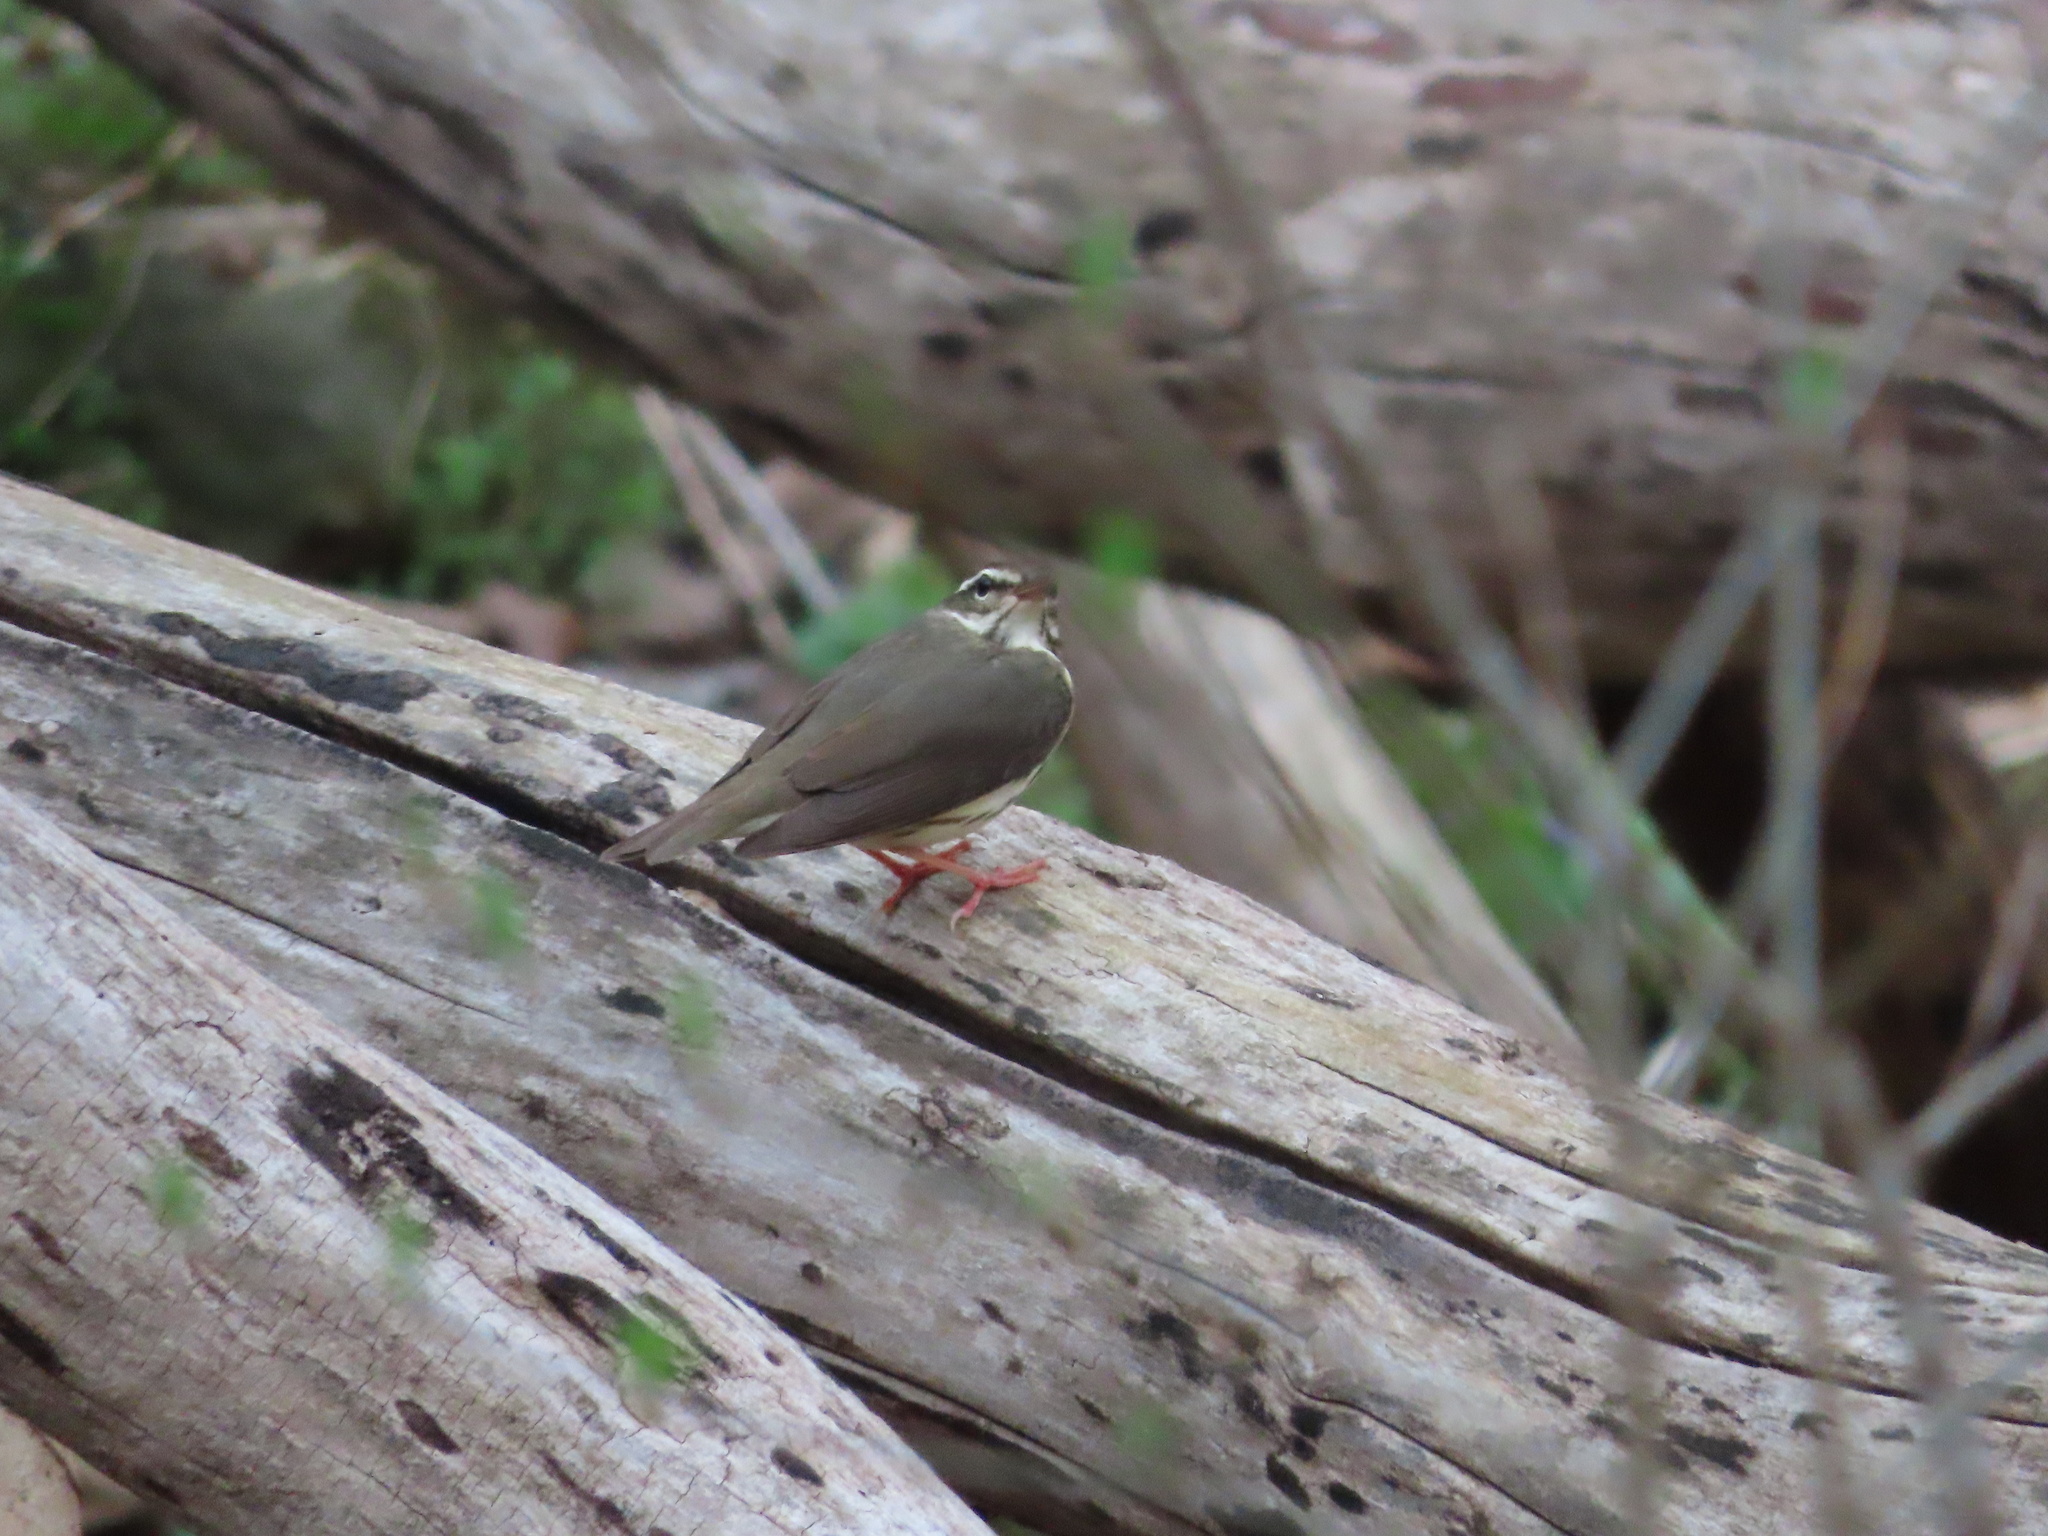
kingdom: Animalia
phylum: Chordata
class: Aves
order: Passeriformes
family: Parulidae
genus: Parkesia
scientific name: Parkesia motacilla
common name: Louisiana waterthrush
